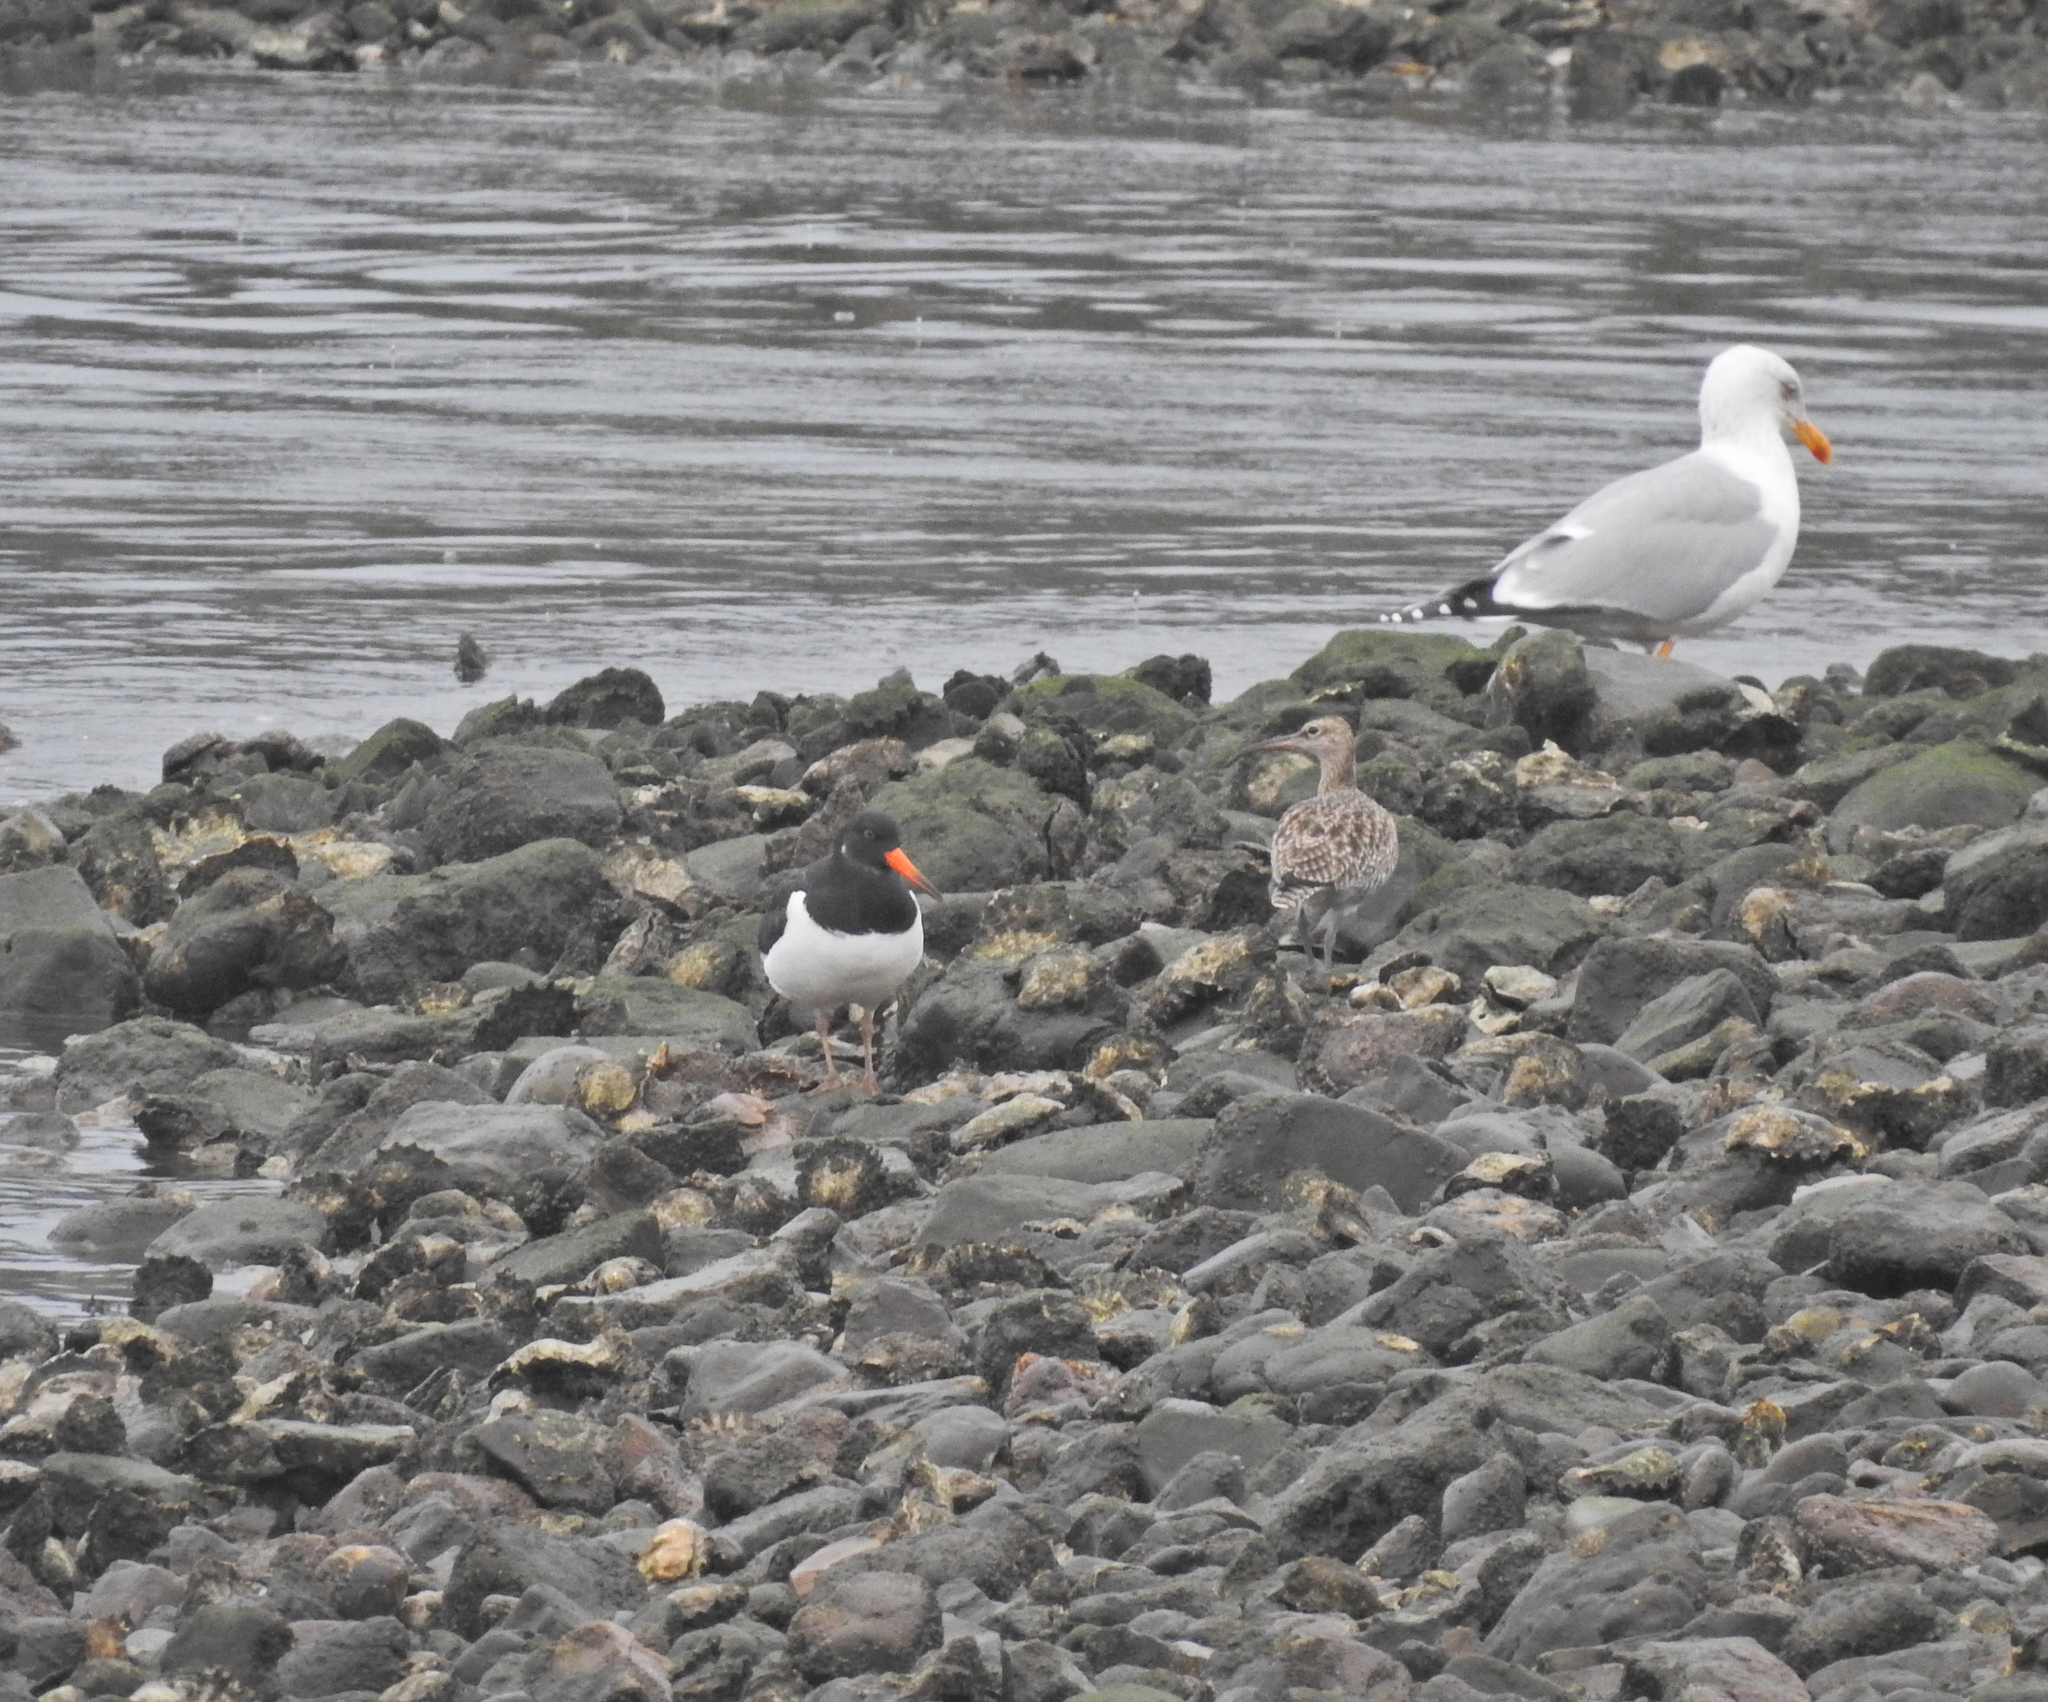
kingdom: Animalia
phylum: Chordata
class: Aves
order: Charadriiformes
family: Haematopodidae
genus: Haematopus
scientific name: Haematopus ostralegus
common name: Eurasian oystercatcher
